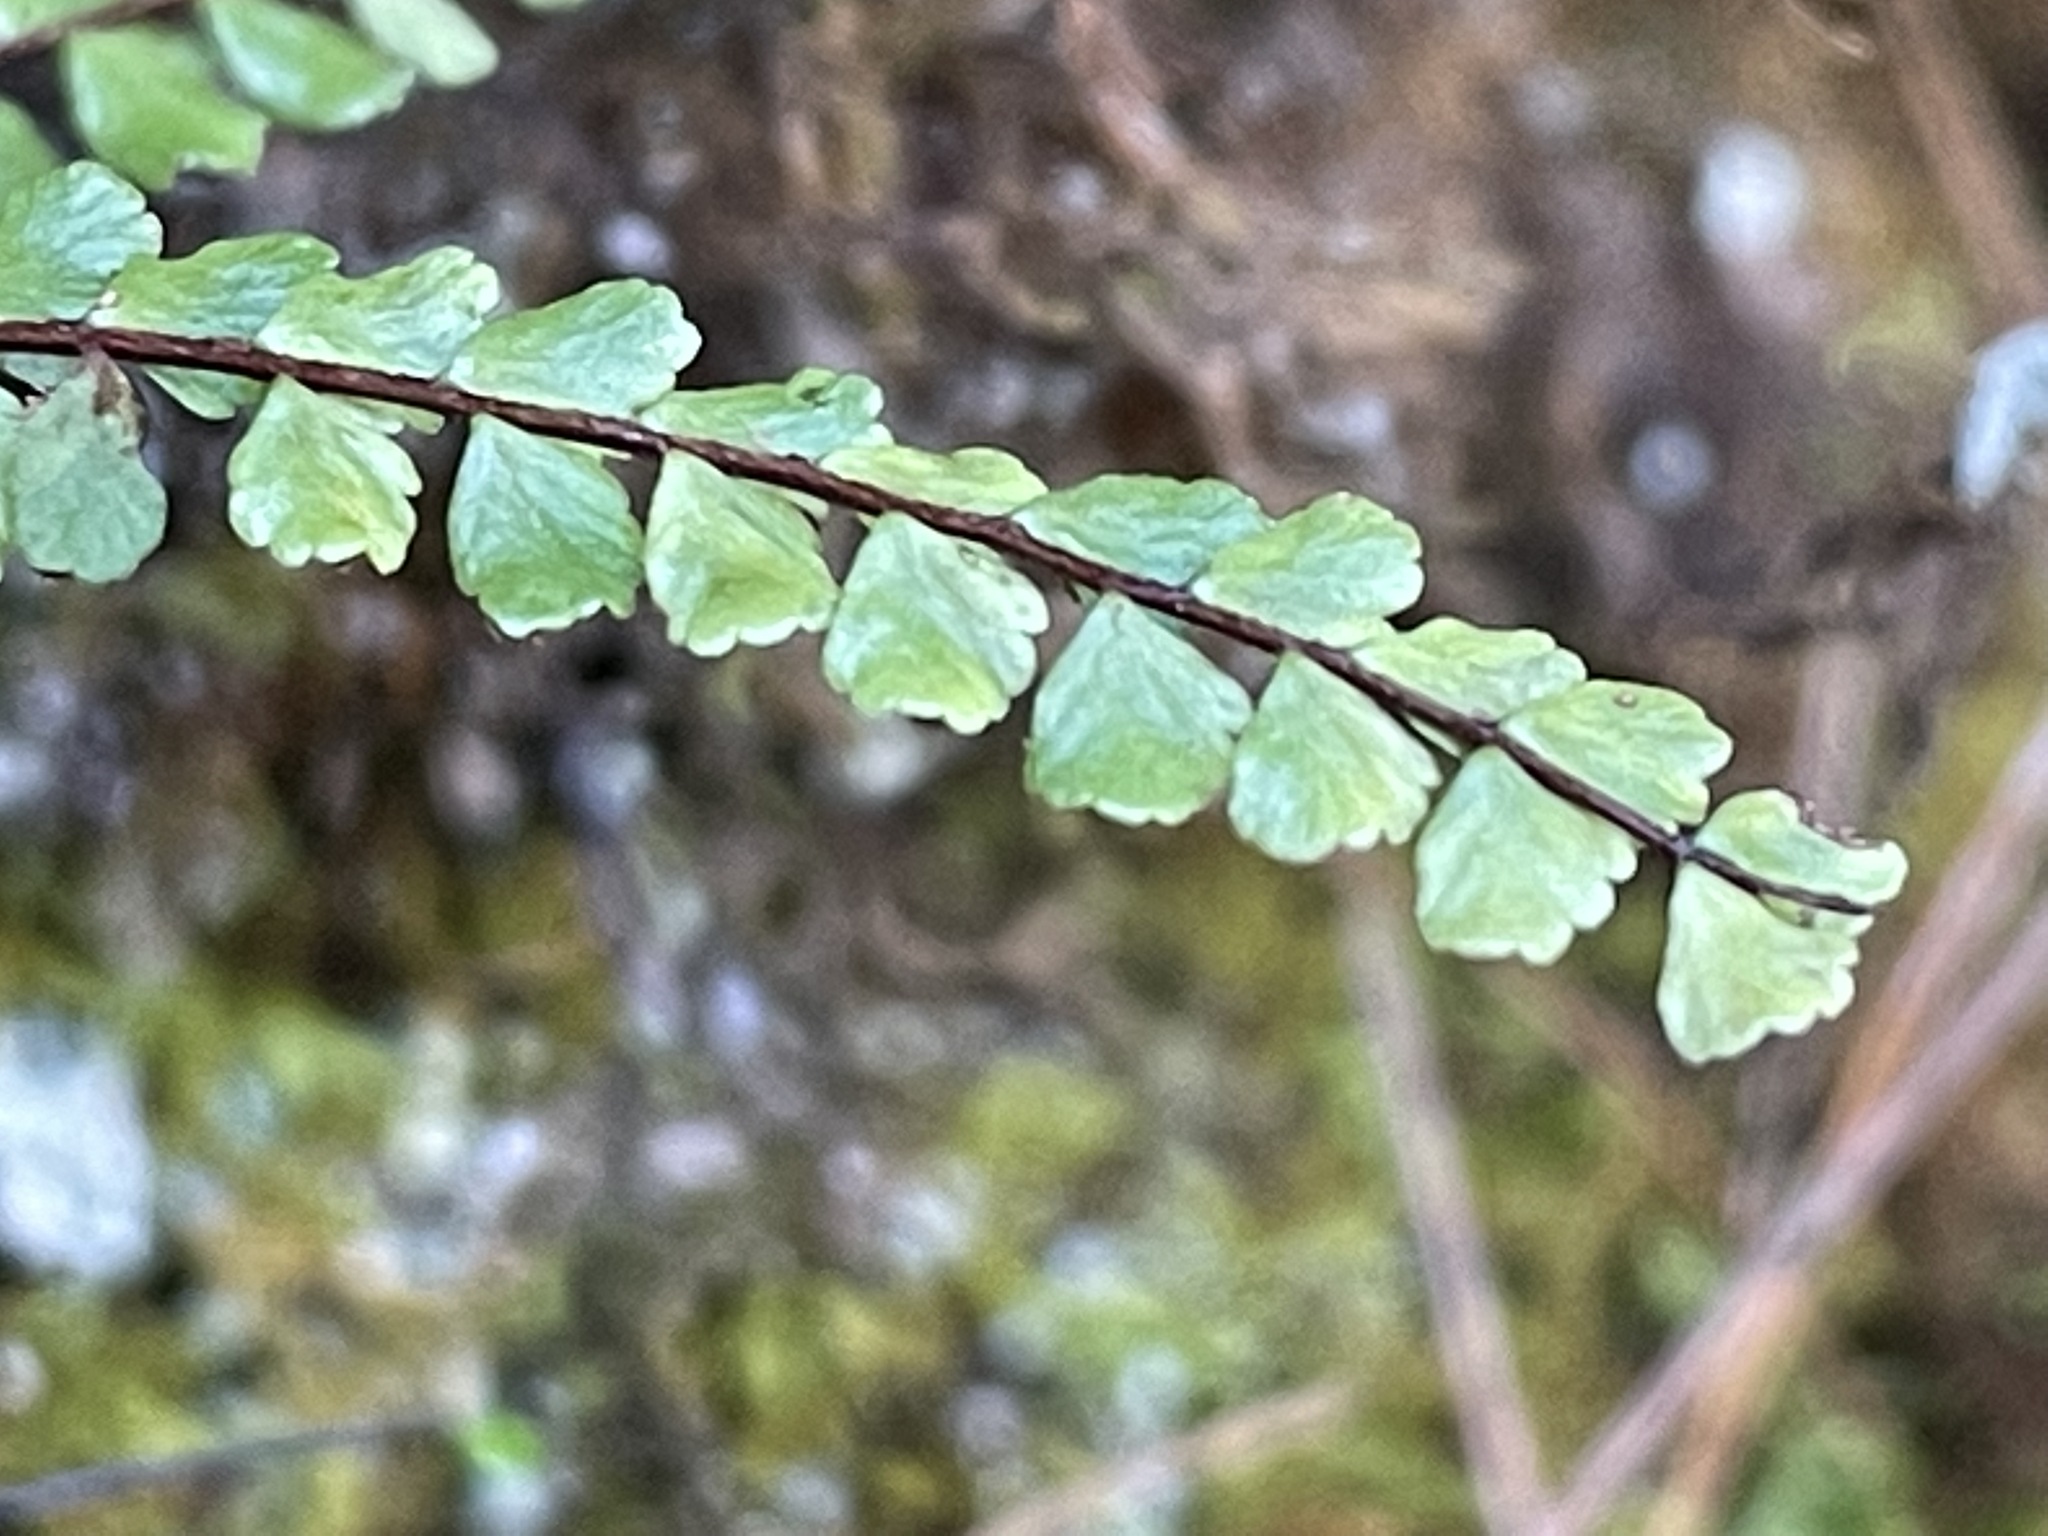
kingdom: Plantae
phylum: Tracheophyta
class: Polypodiopsida
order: Polypodiales
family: Aspleniaceae
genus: Asplenium
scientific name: Asplenium trichomanes
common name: Maidenhair spleenwort
